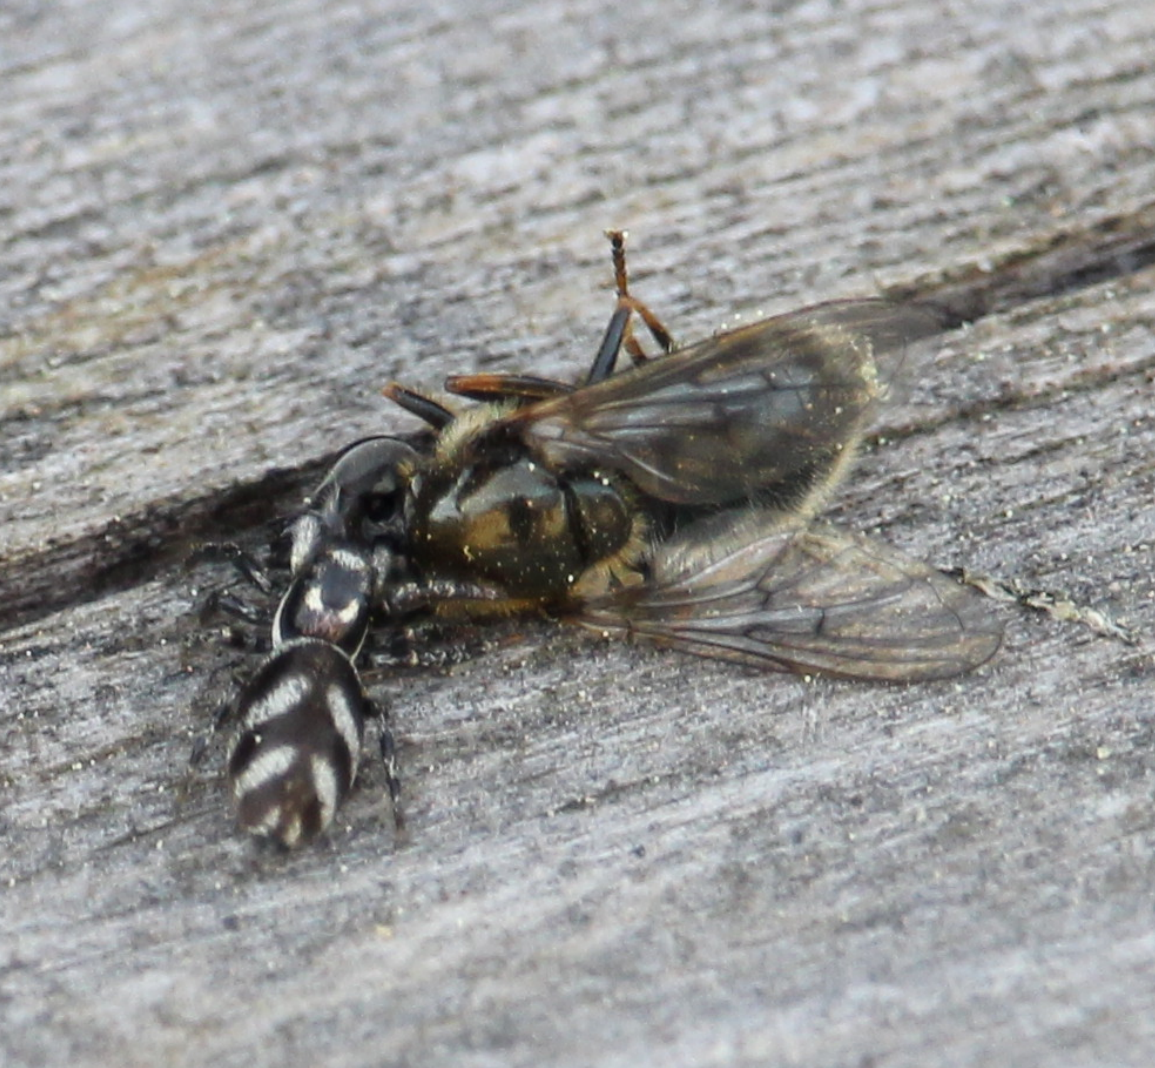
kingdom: Animalia
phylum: Arthropoda
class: Arachnida
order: Araneae
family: Salticidae
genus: Salticus
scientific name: Salticus scenicus
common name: Zebra jumper
